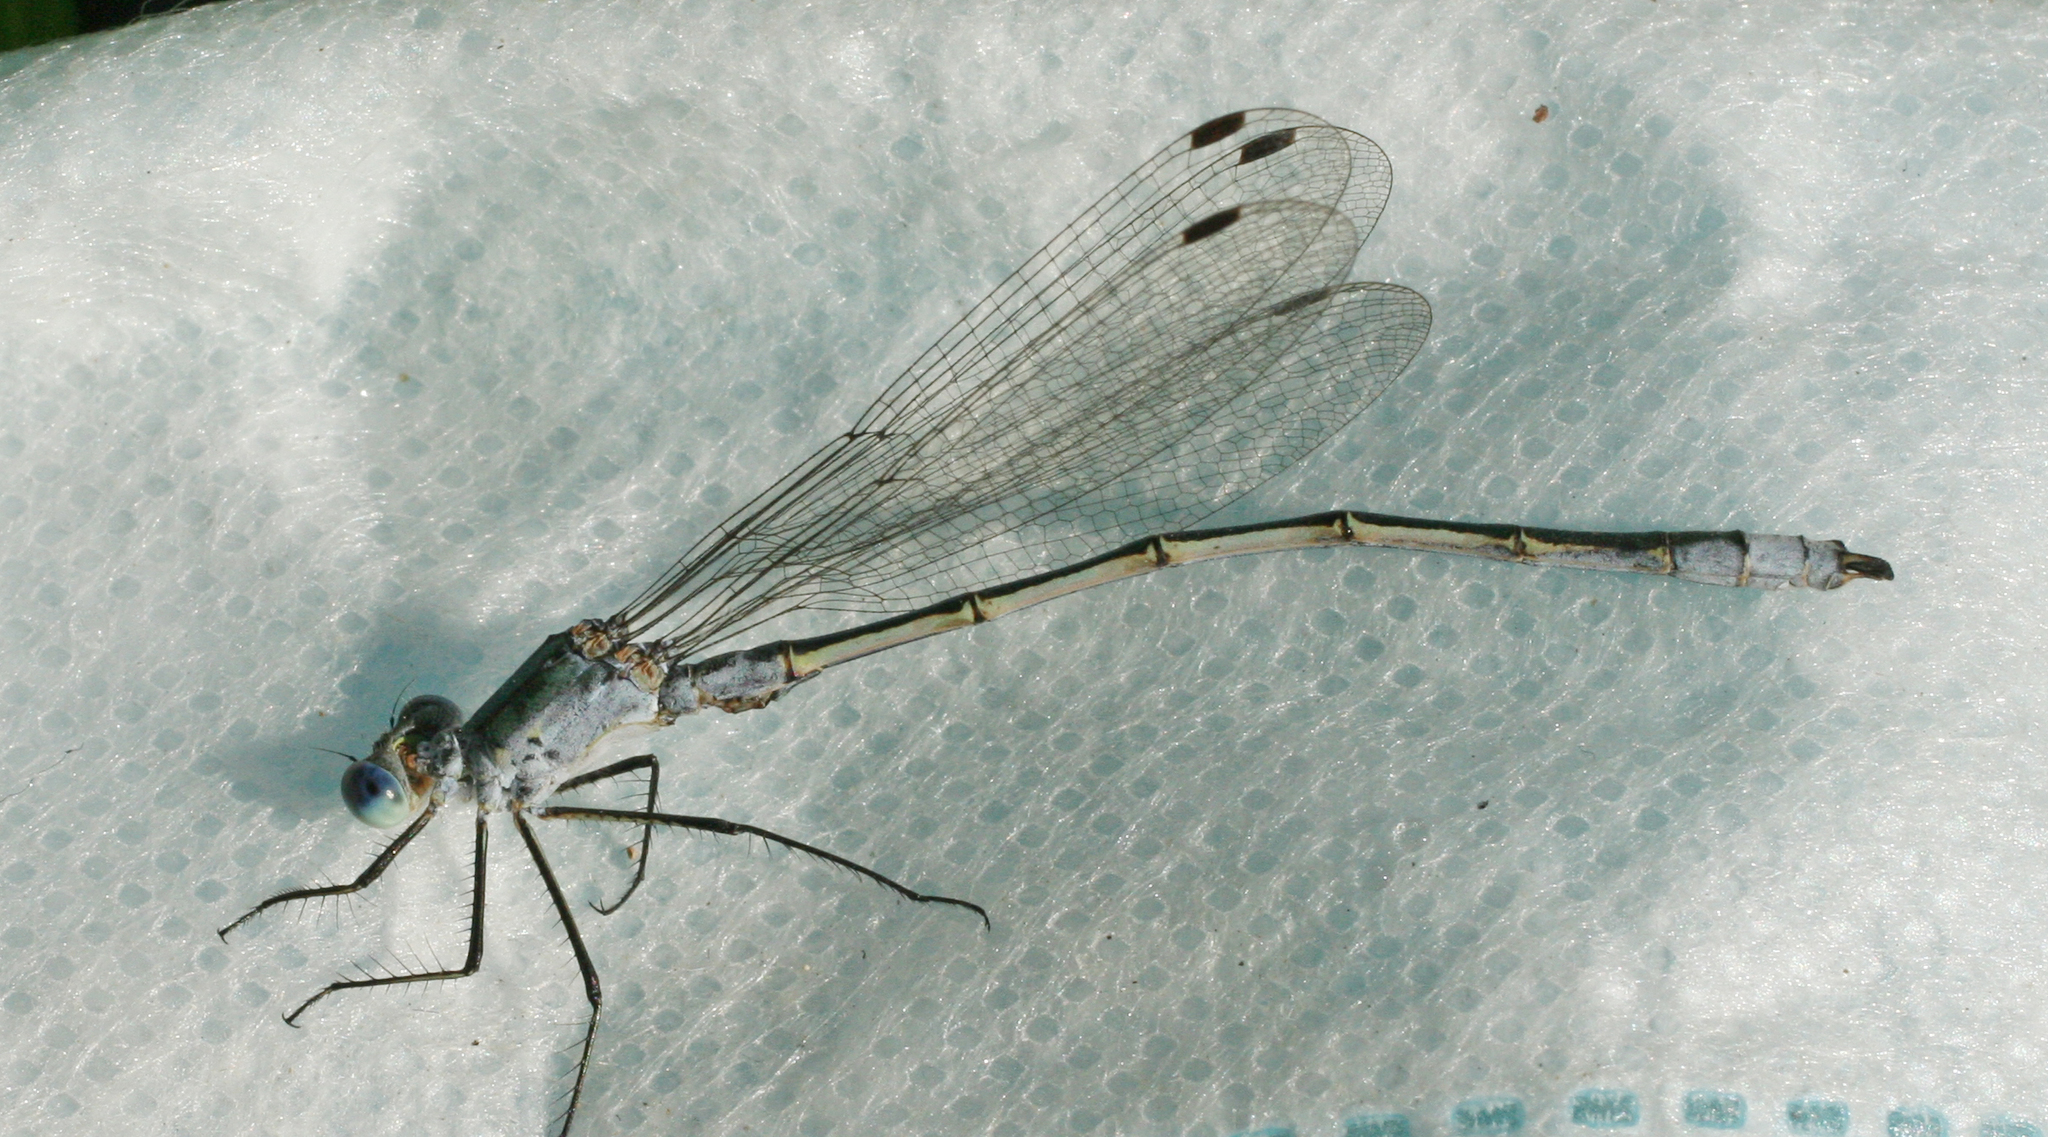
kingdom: Animalia
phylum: Arthropoda
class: Insecta
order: Odonata
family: Lestidae
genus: Lestes
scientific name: Lestes sponsa
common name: Common spreadwing
